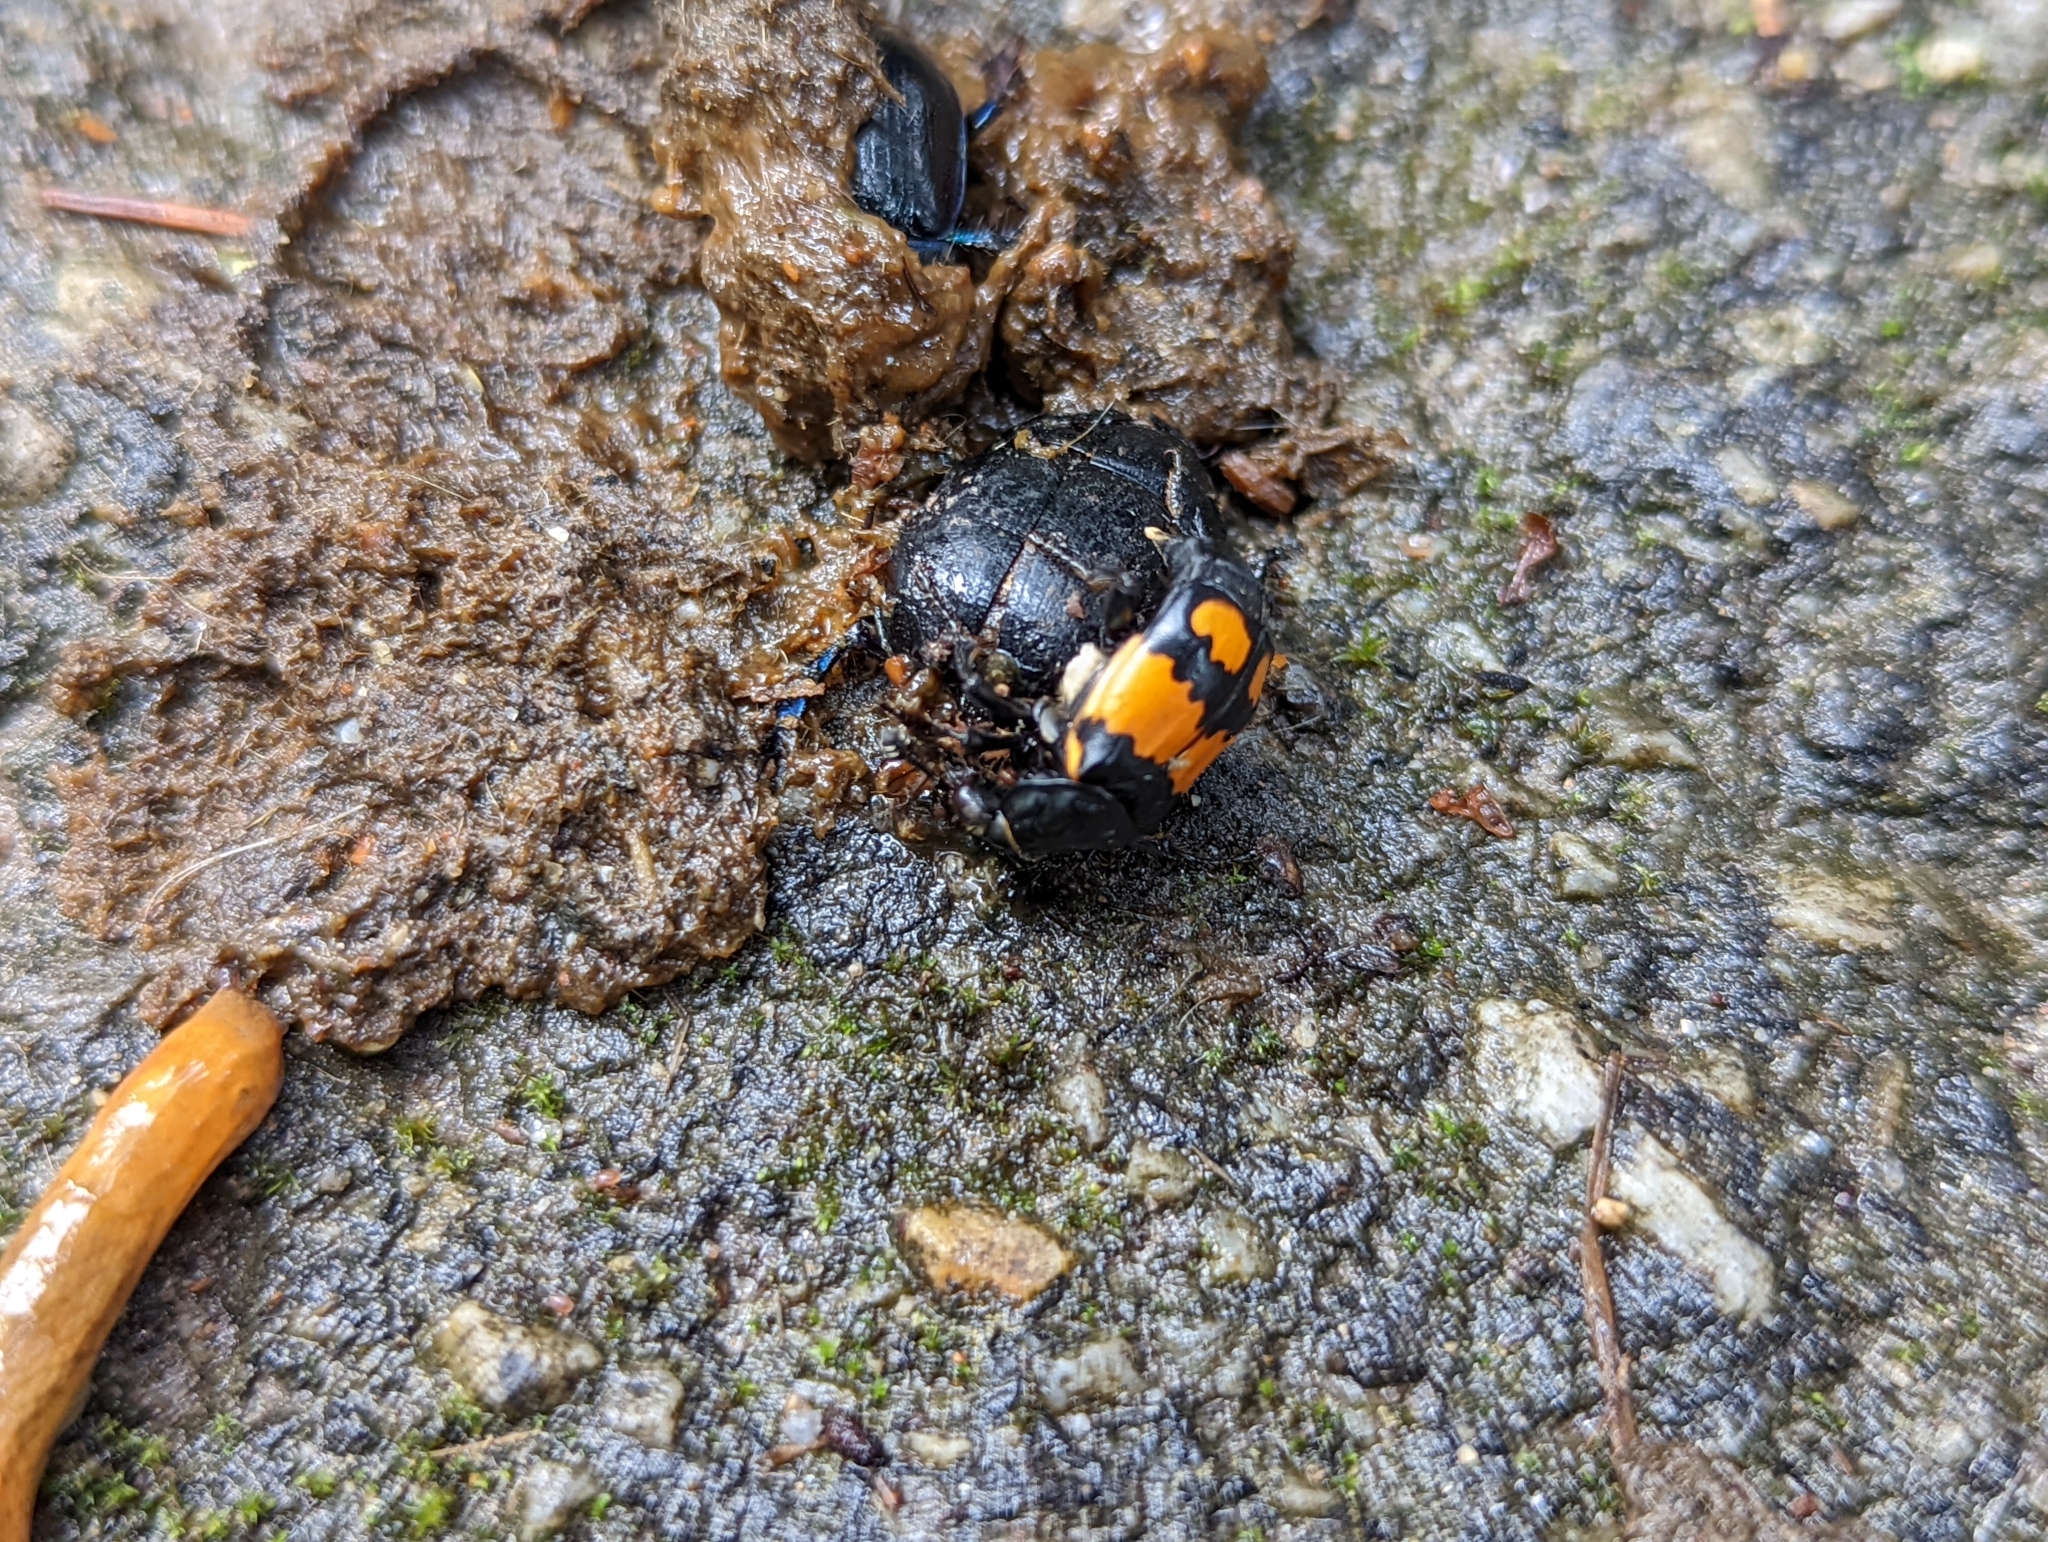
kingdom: Animalia
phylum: Arthropoda
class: Insecta
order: Coleoptera
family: Staphylinidae
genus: Nicrophorus
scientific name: Nicrophorus vespilloides
